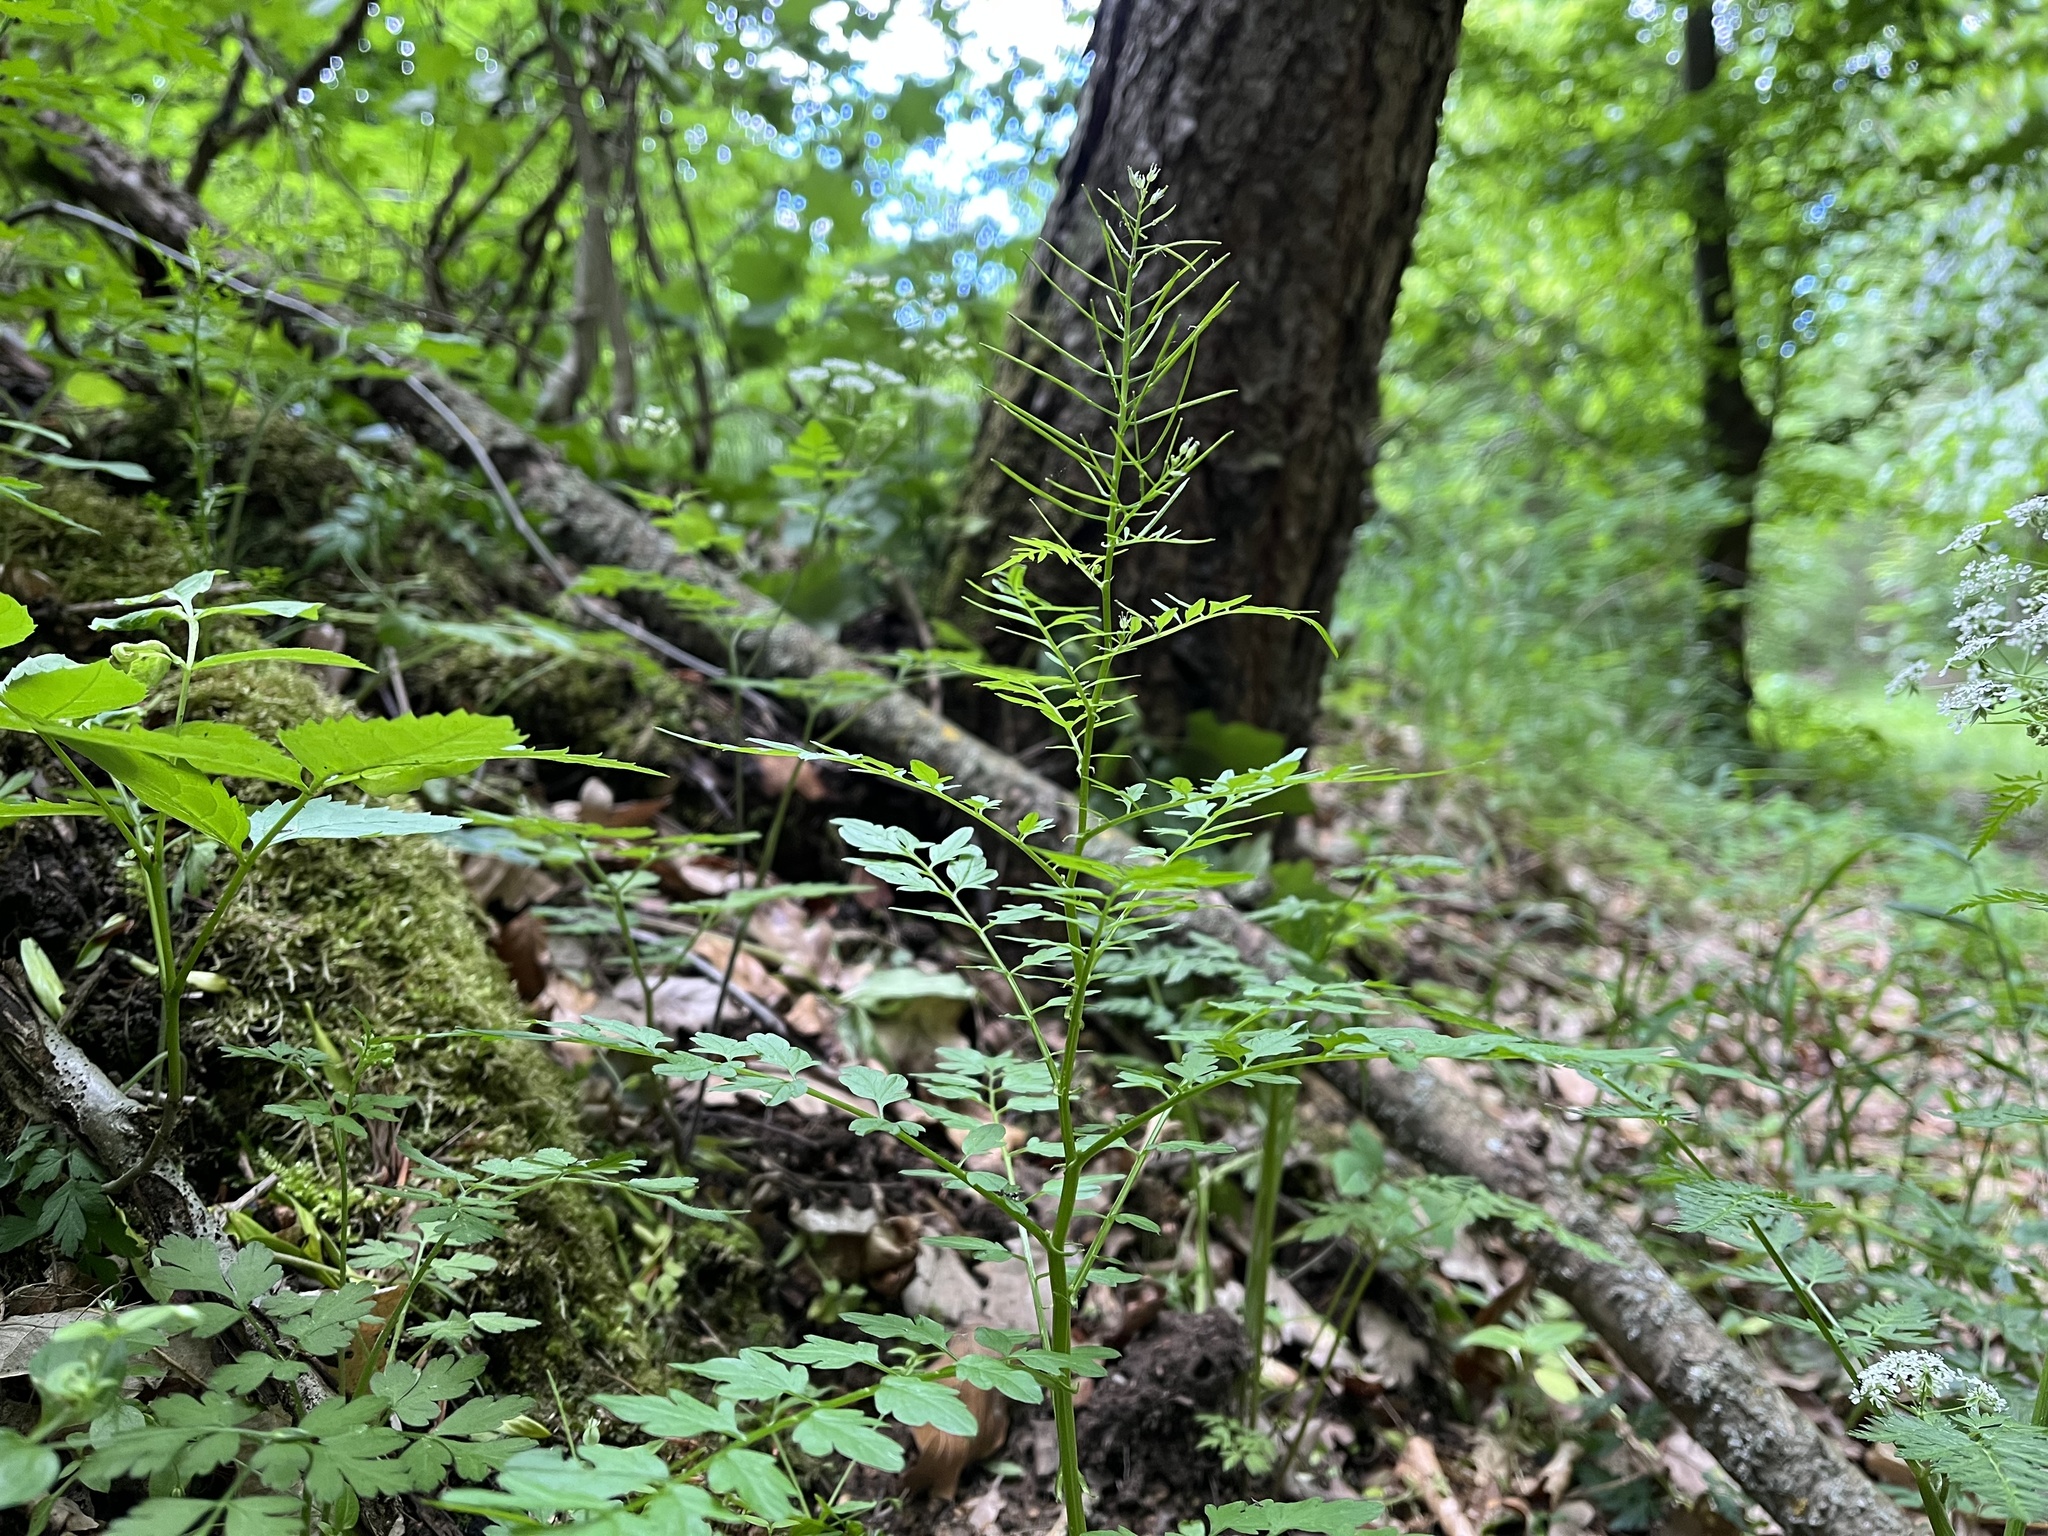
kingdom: Plantae
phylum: Tracheophyta
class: Magnoliopsida
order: Brassicales
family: Brassicaceae
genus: Cardamine
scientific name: Cardamine impatiens
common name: Narrow-leaved bitter-cress
